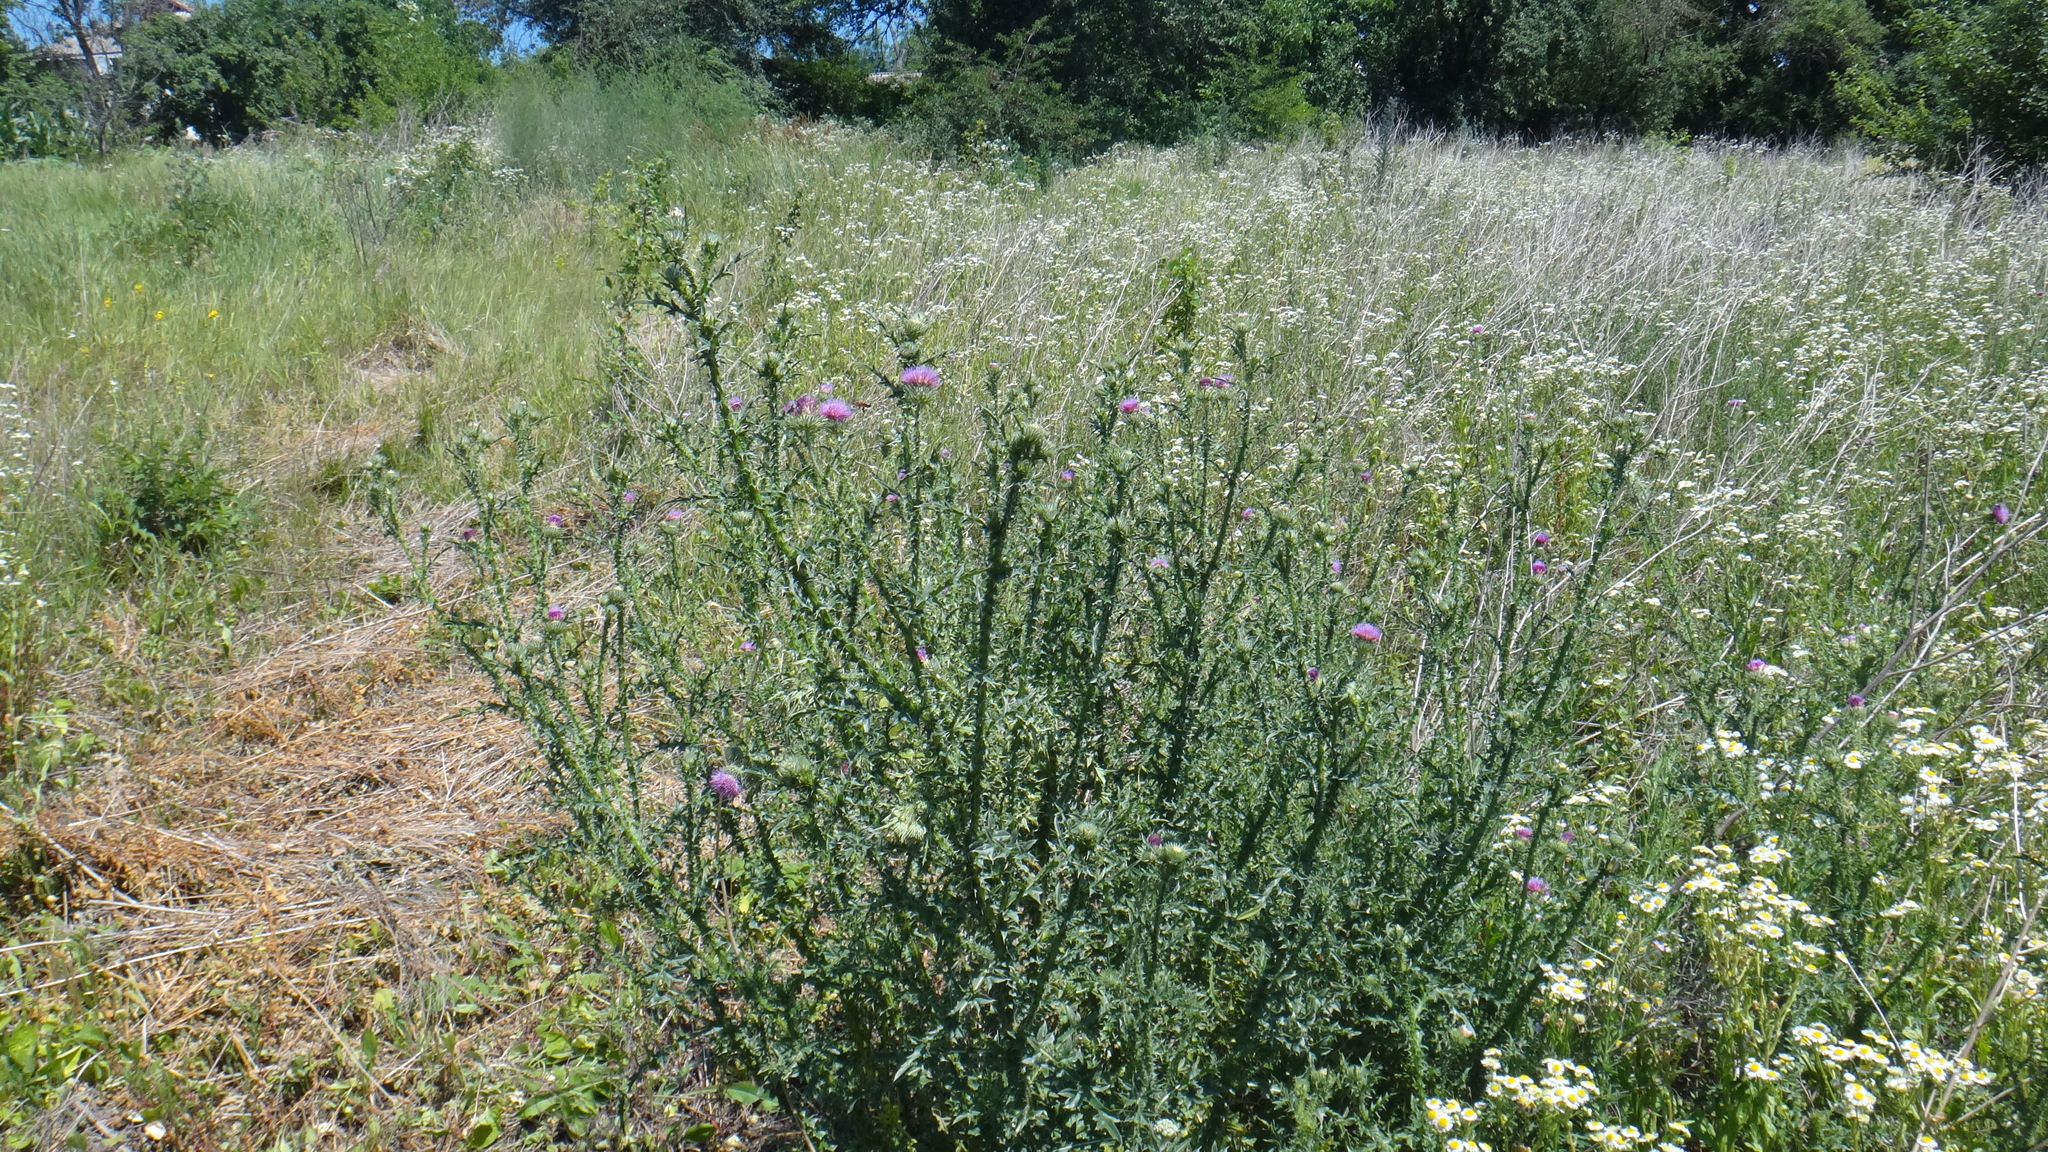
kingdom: Plantae
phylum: Tracheophyta
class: Magnoliopsida
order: Asterales
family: Asteraceae
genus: Carduus
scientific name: Carduus acanthoides
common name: Plumeless thistle
